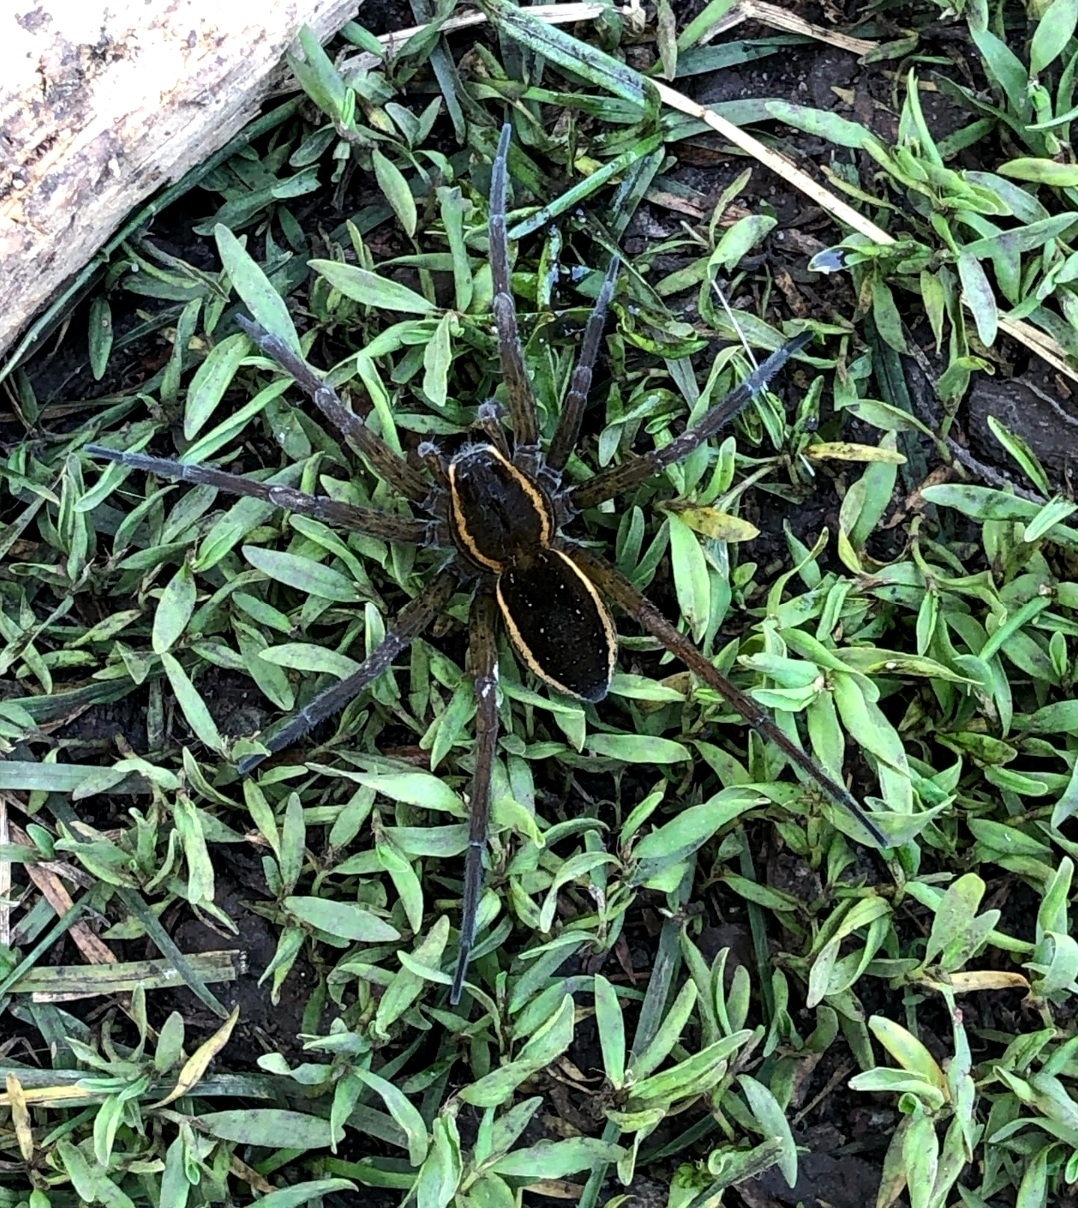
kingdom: Animalia
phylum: Arthropoda
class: Arachnida
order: Araneae
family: Pisauridae
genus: Dolomedes
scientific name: Dolomedes
